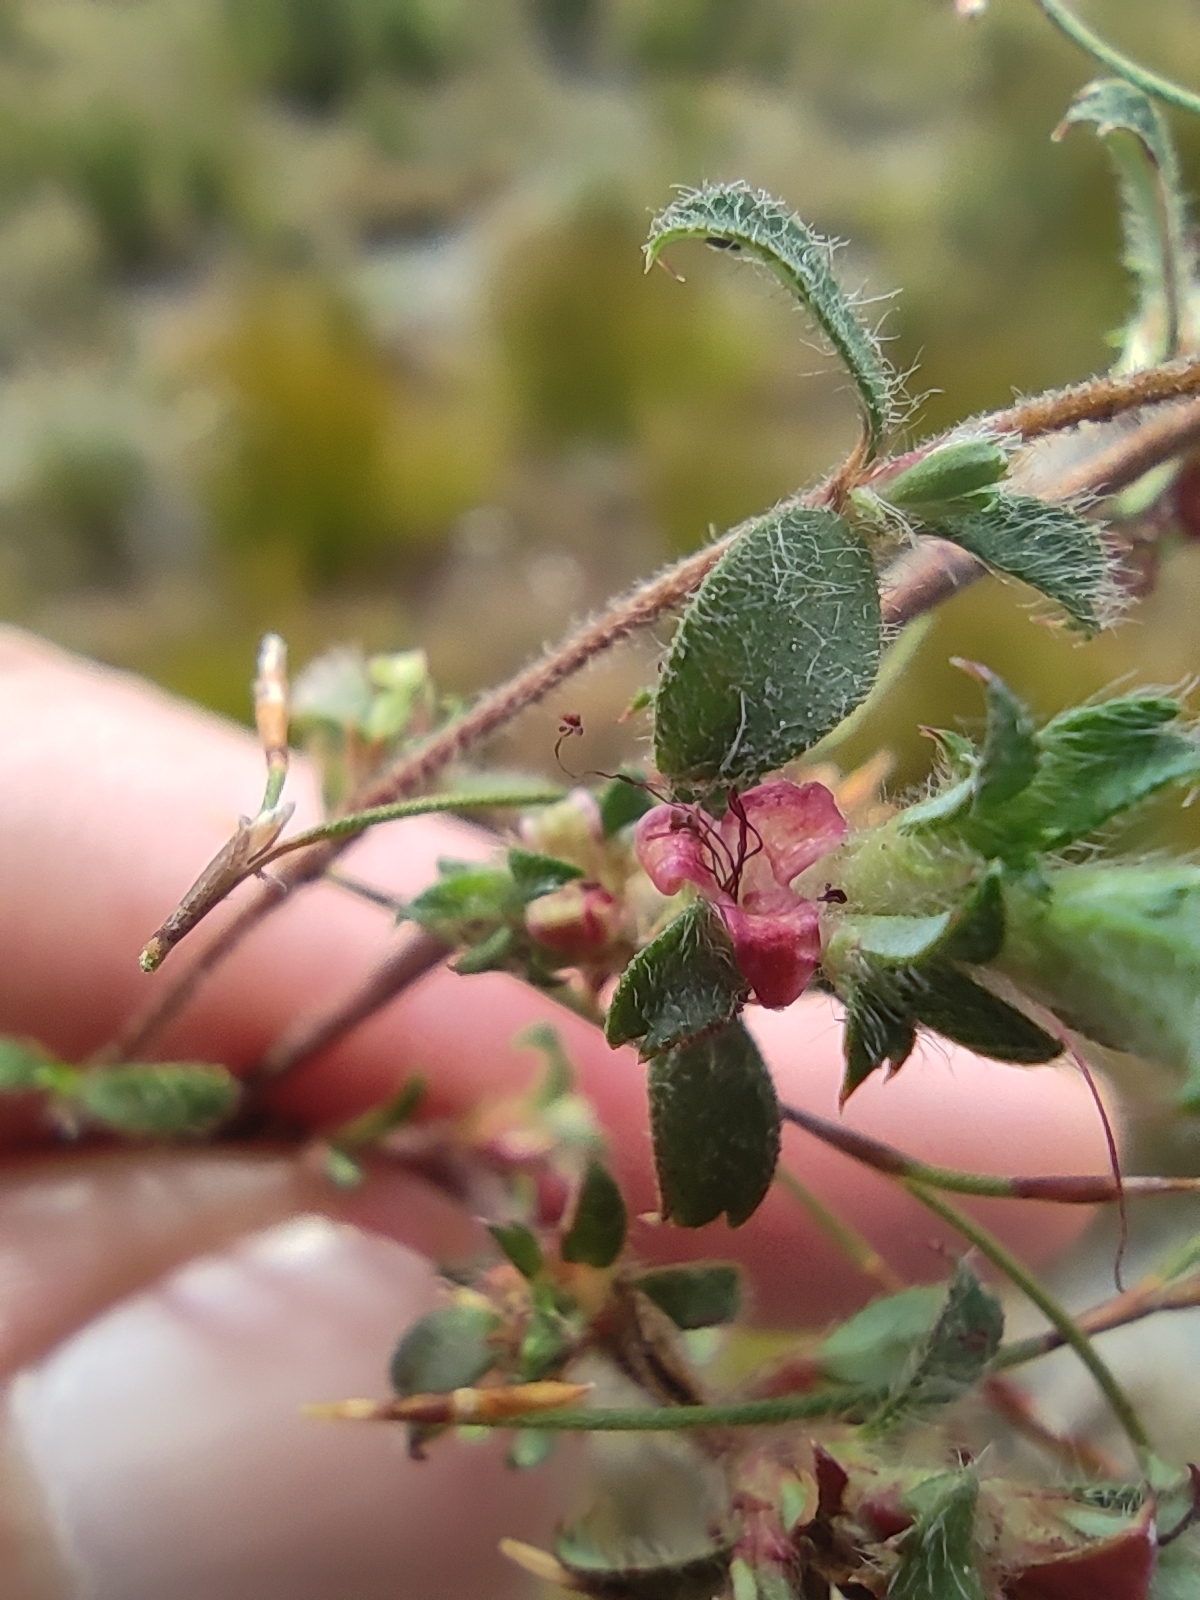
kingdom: Plantae
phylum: Tracheophyta
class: Magnoliopsida
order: Rosales
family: Rosaceae
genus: Cliffortia
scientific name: Cliffortia tricuspidata
